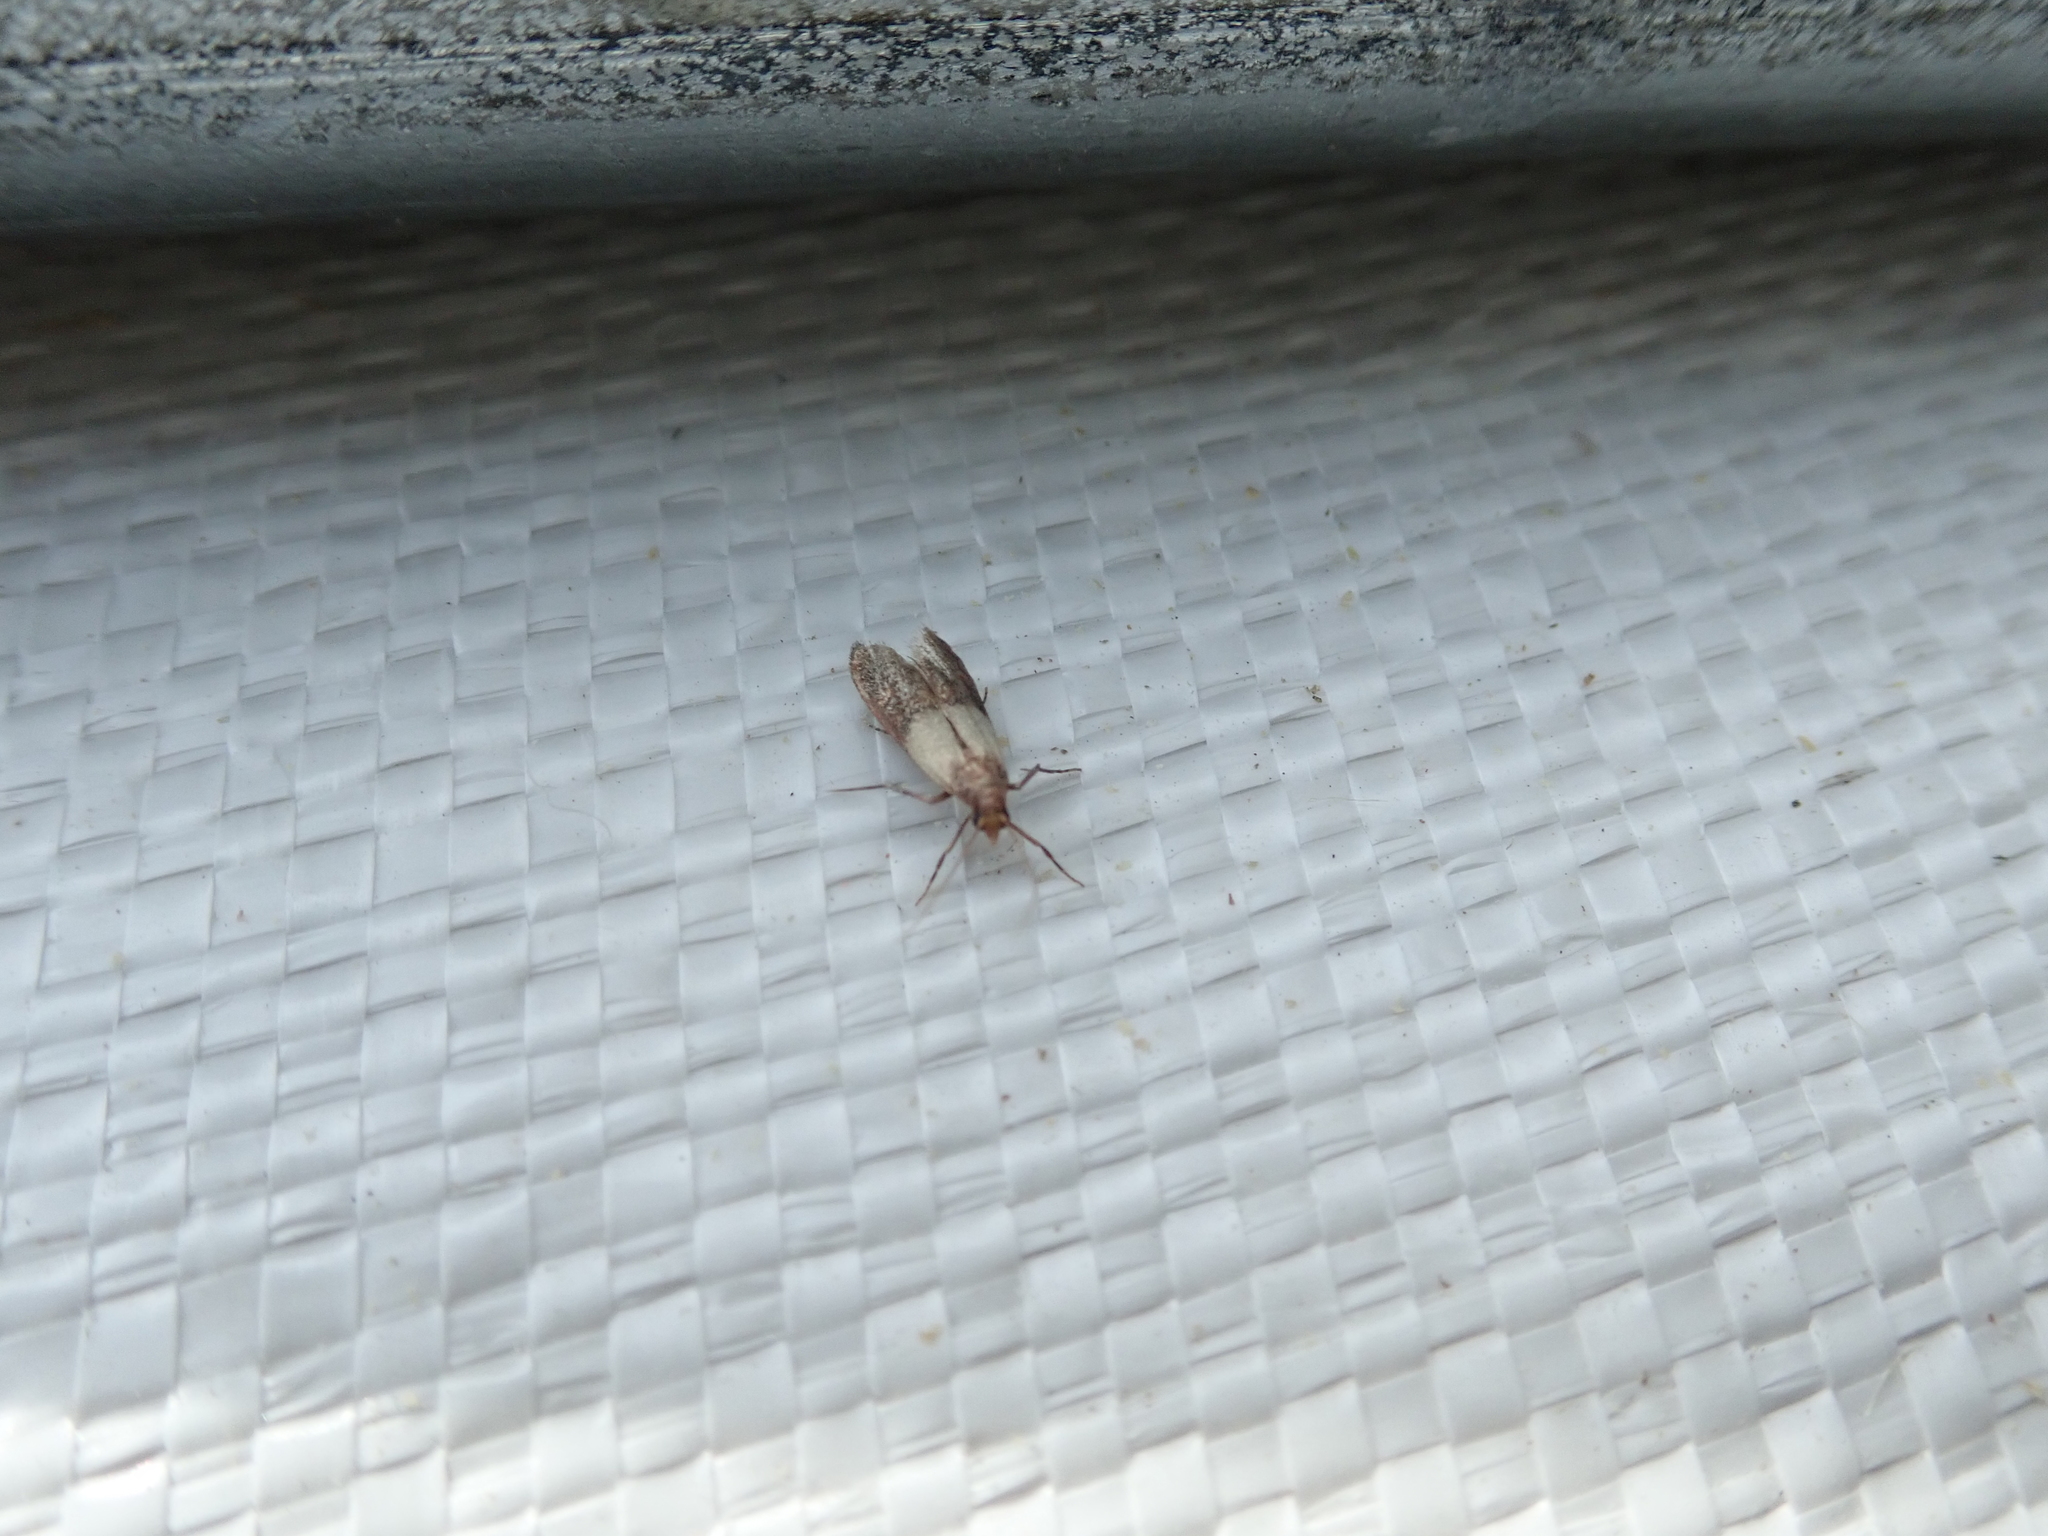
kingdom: Animalia
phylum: Arthropoda
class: Insecta
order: Lepidoptera
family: Pyralidae
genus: Plodia
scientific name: Plodia interpunctella
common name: Indian meal moth
